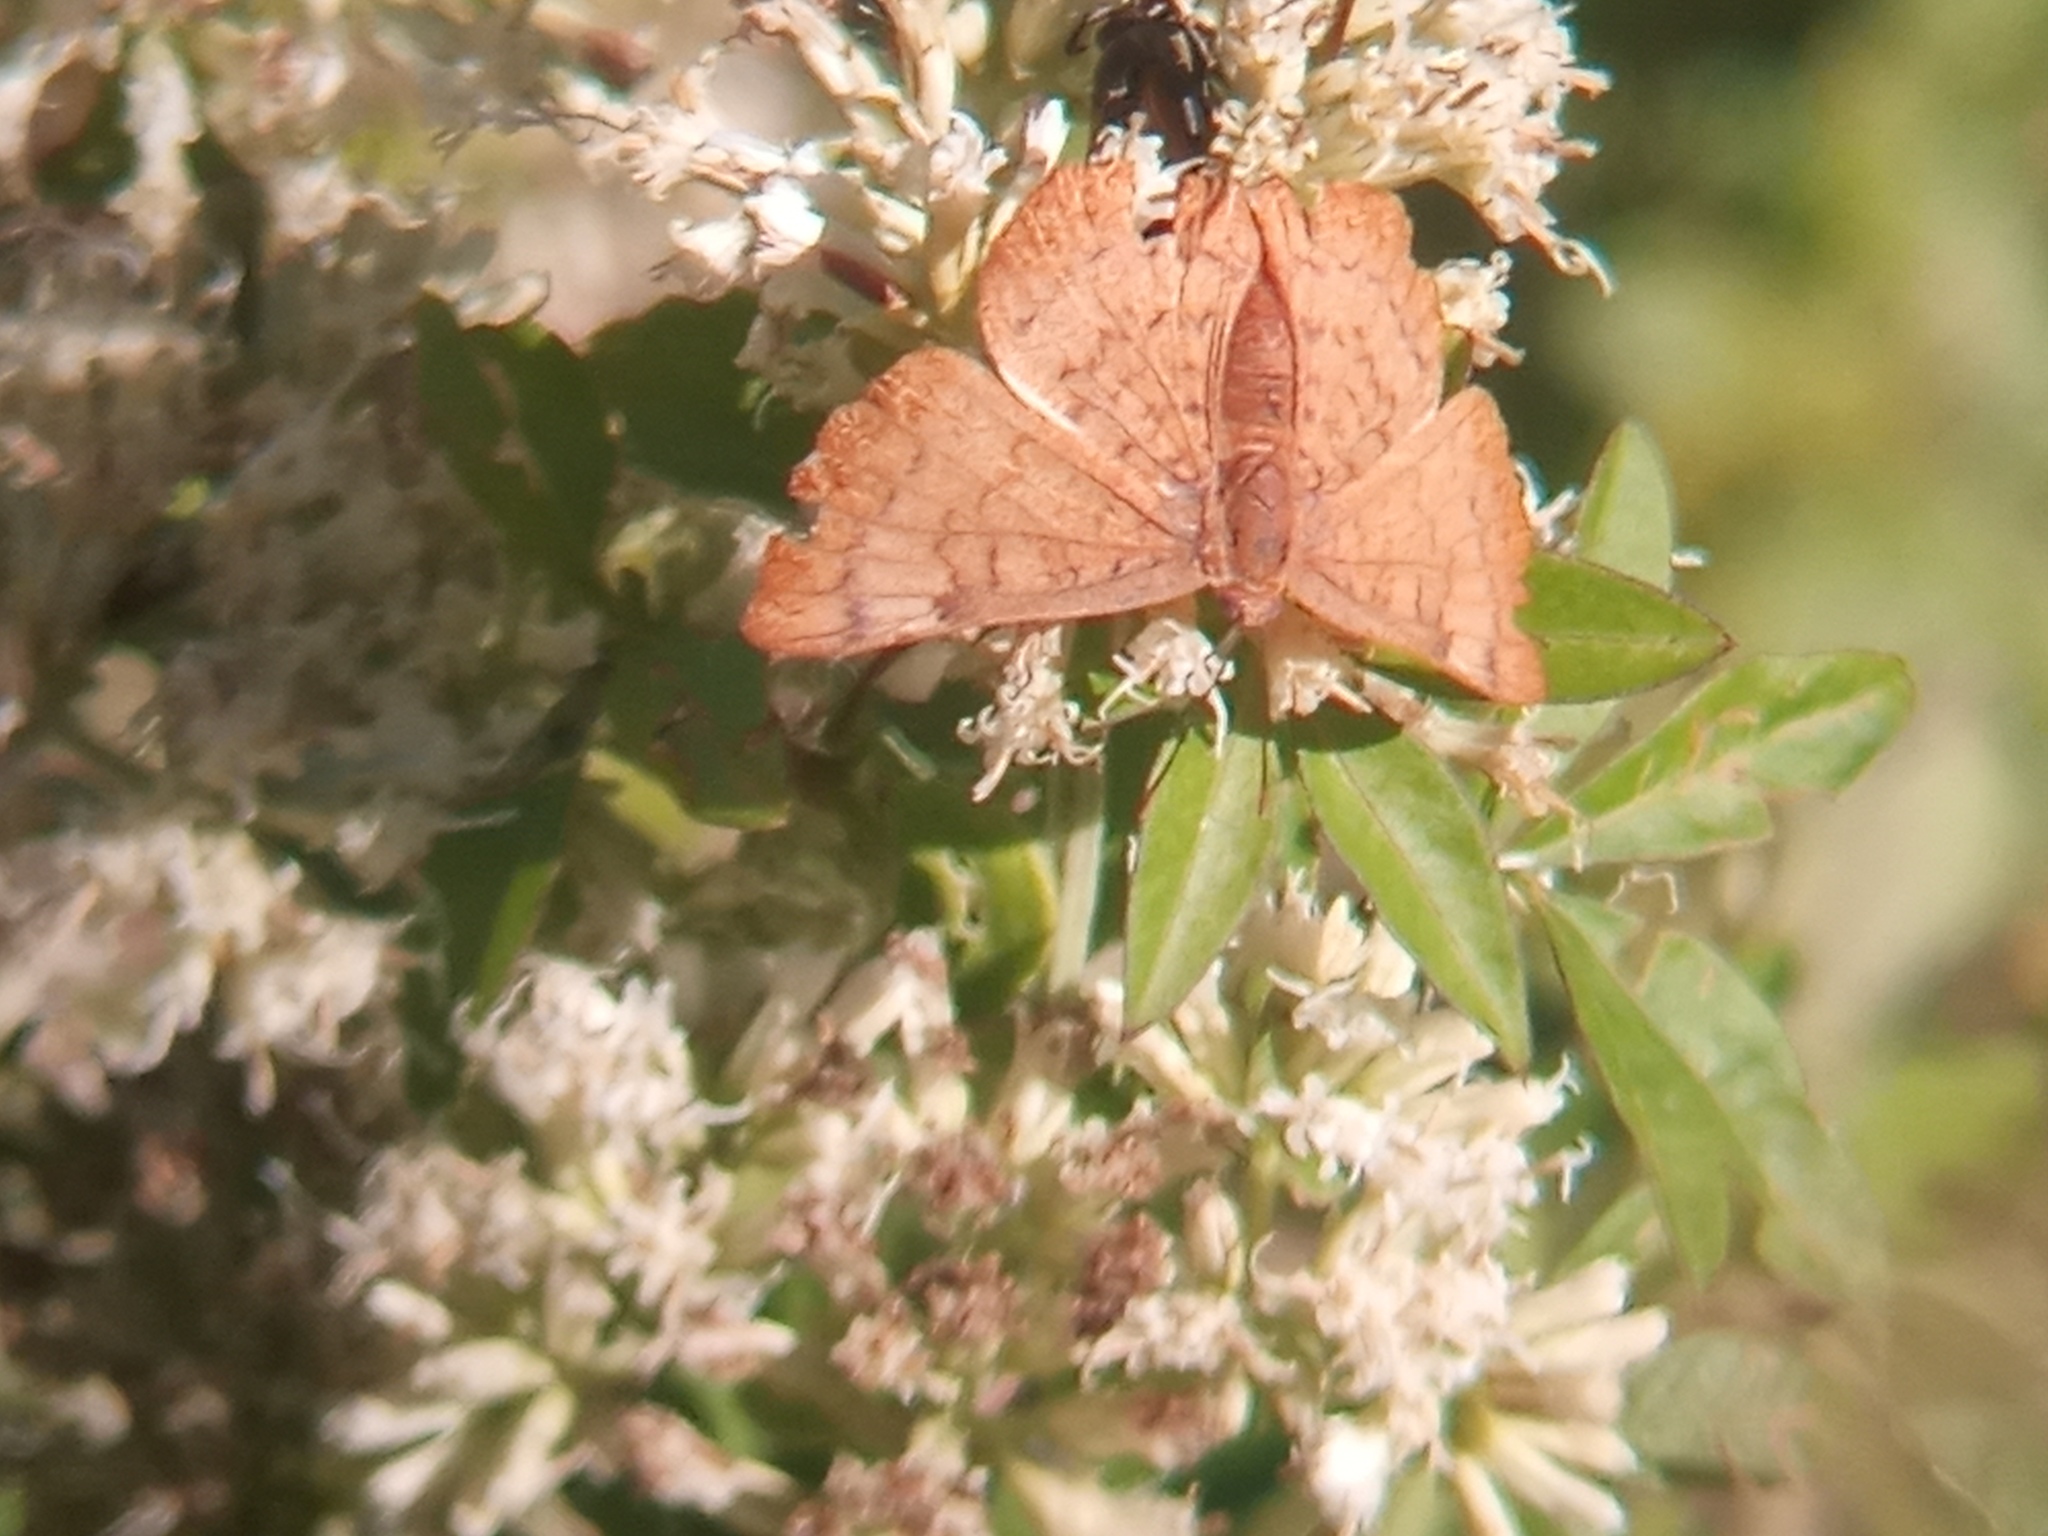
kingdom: Animalia
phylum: Arthropoda
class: Insecta
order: Lepidoptera
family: Lycaenidae
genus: Emesis
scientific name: Emesis russula
